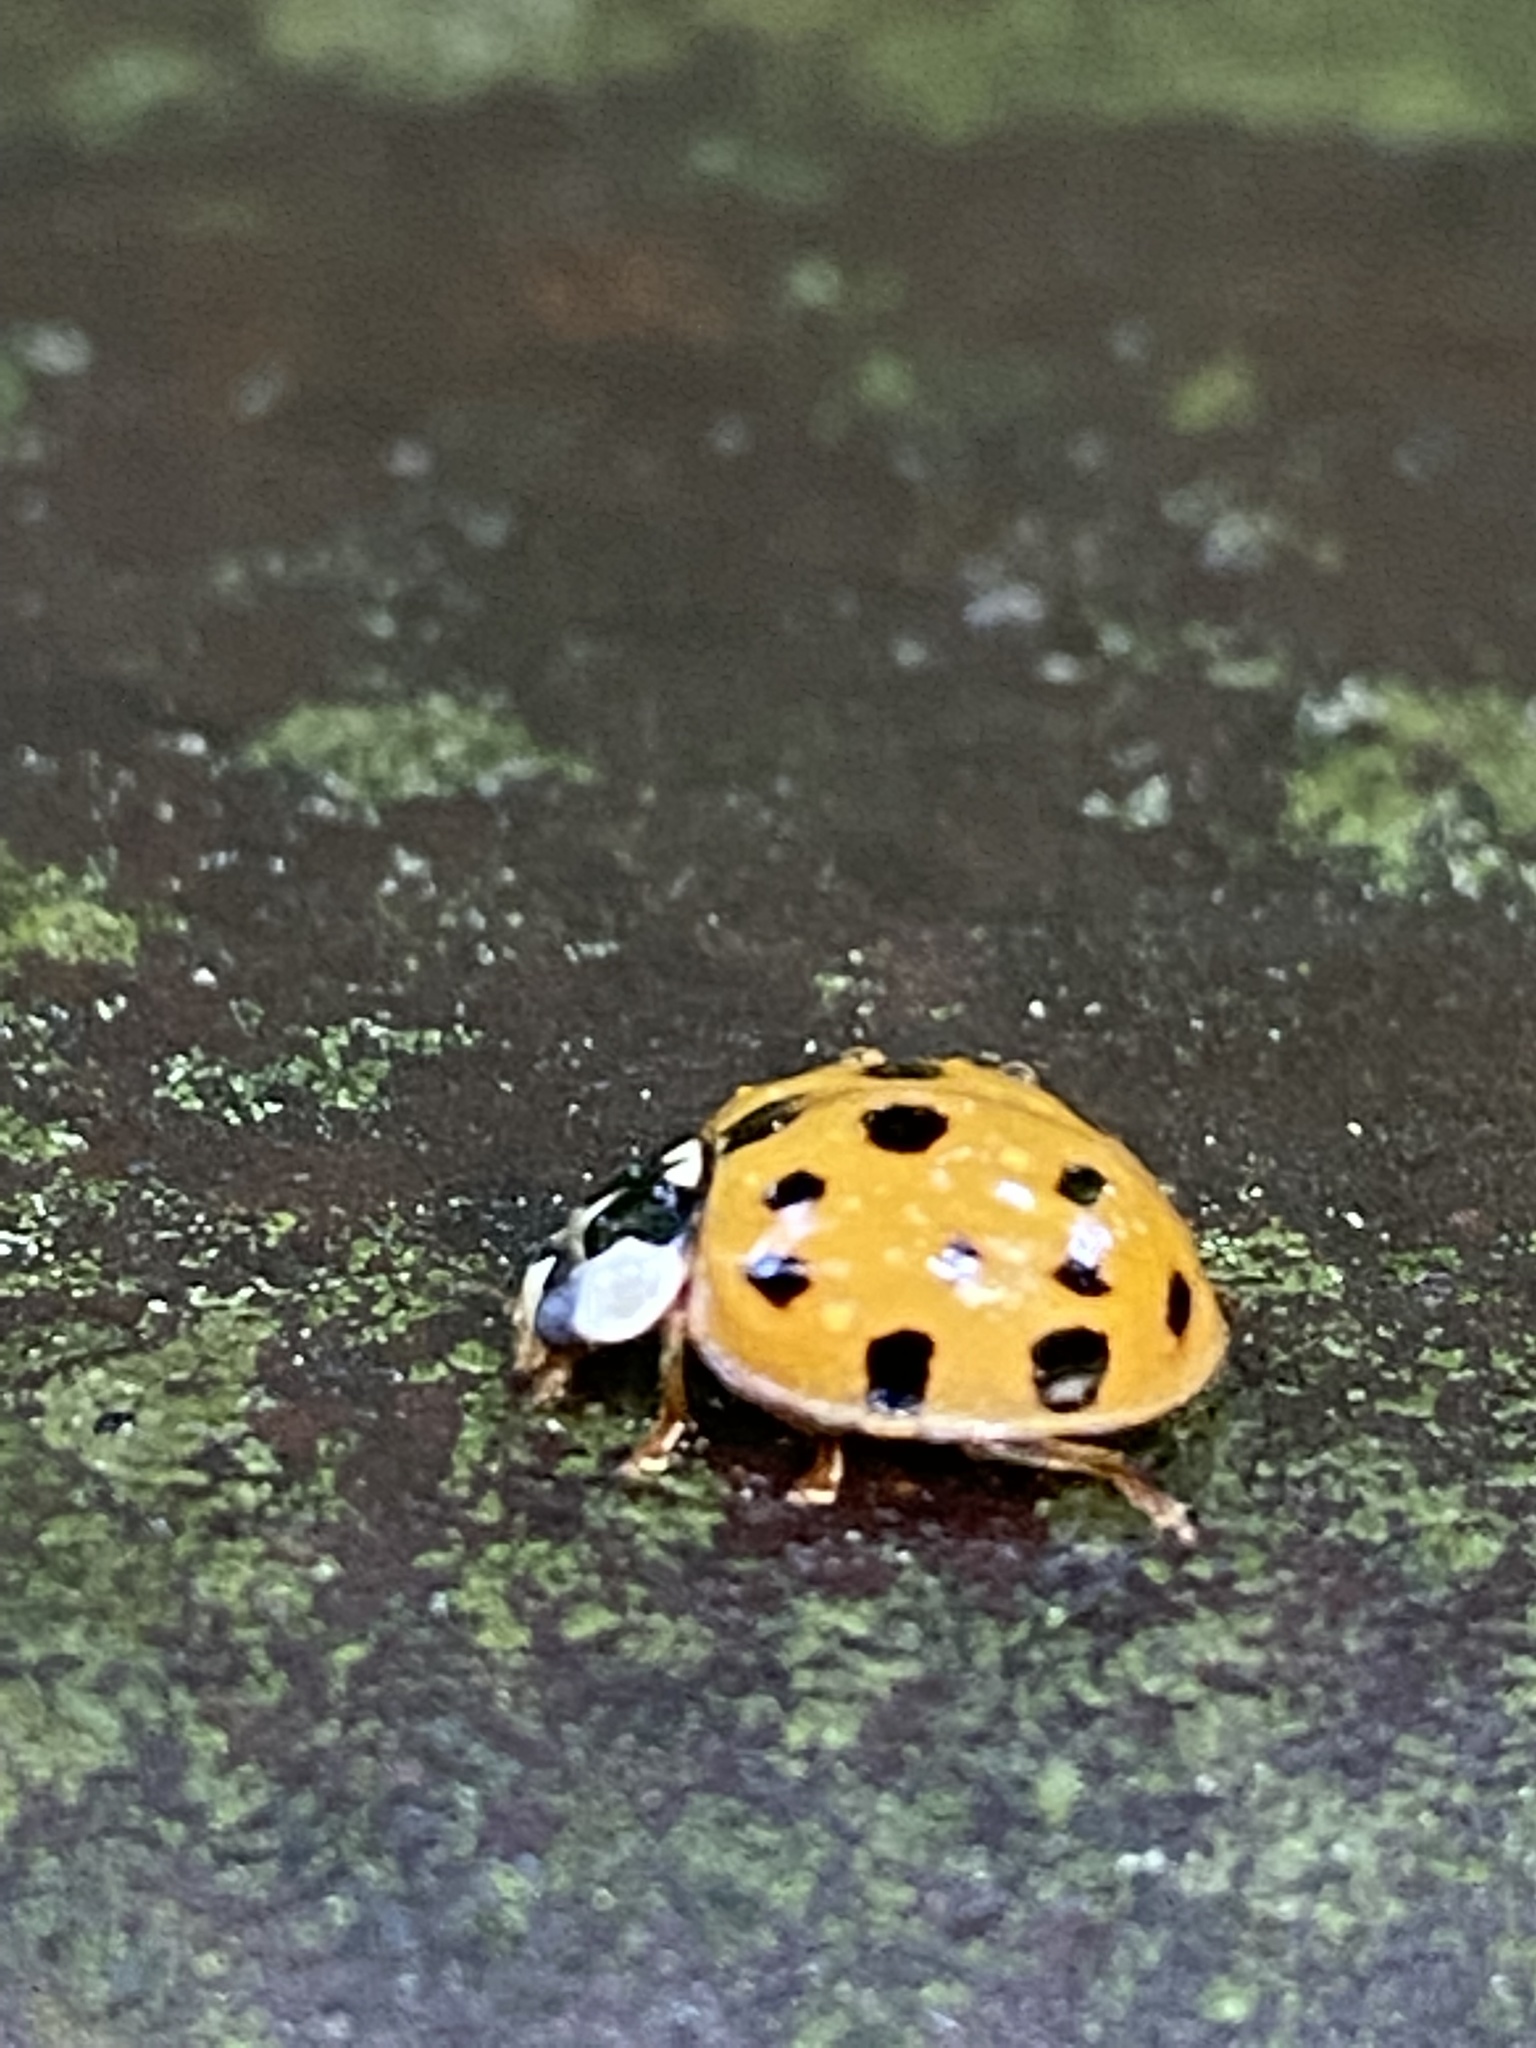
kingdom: Animalia
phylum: Arthropoda
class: Insecta
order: Coleoptera
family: Coccinellidae
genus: Harmonia
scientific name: Harmonia axyridis
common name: Harlequin ladybird
